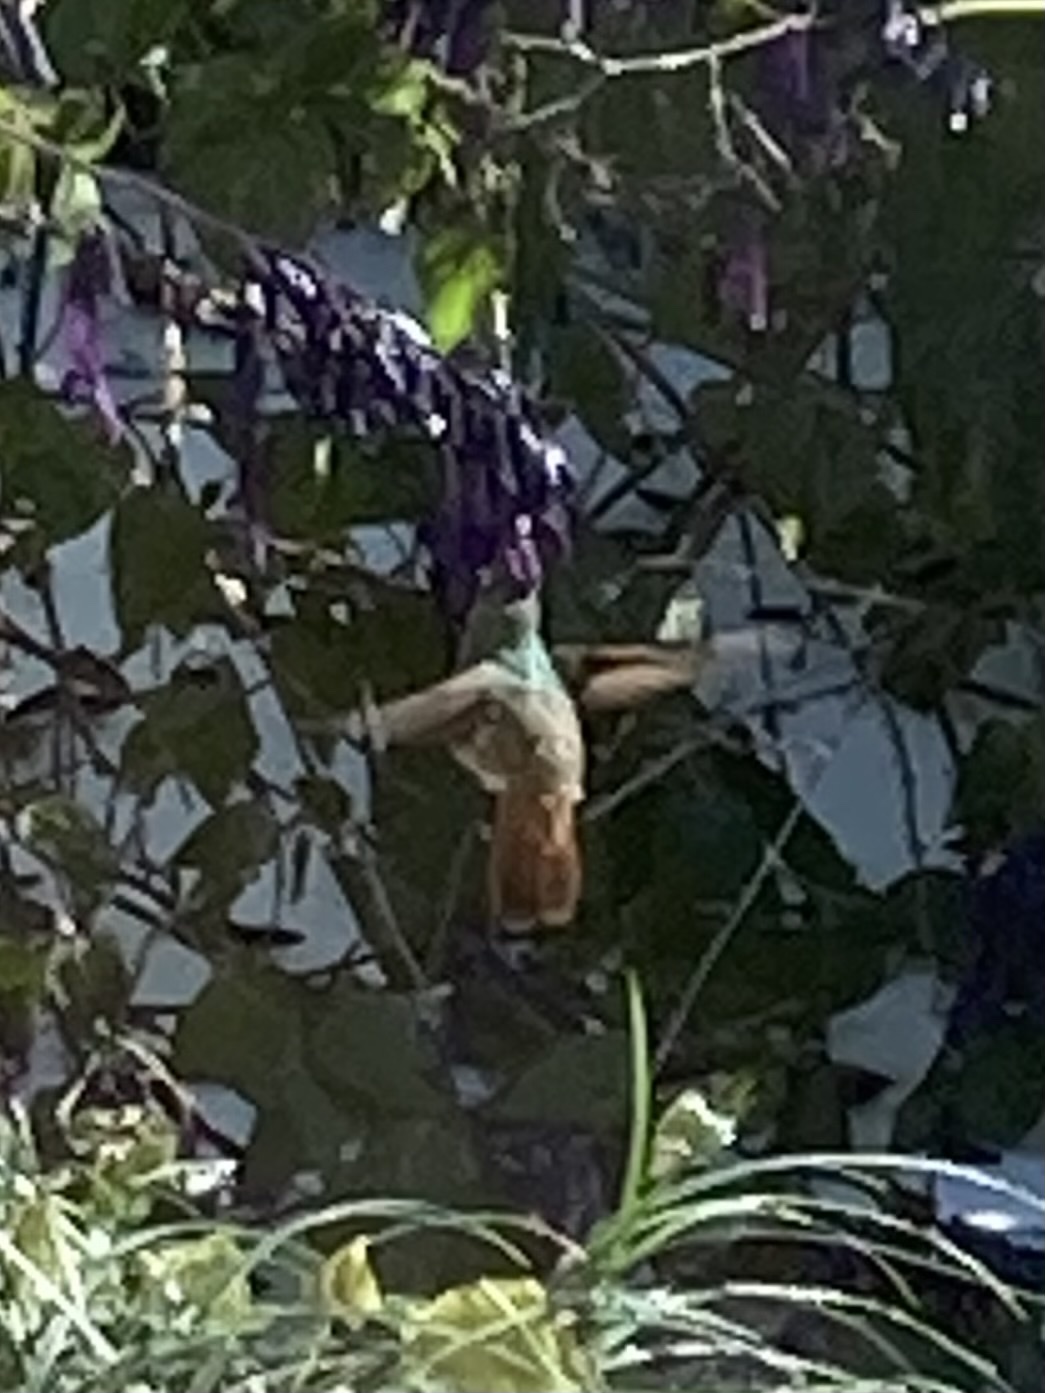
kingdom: Animalia
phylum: Chordata
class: Aves
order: Apodiformes
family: Trochilidae
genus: Amazilia
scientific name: Amazilia yucatanensis
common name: Buff-bellied hummingbird
